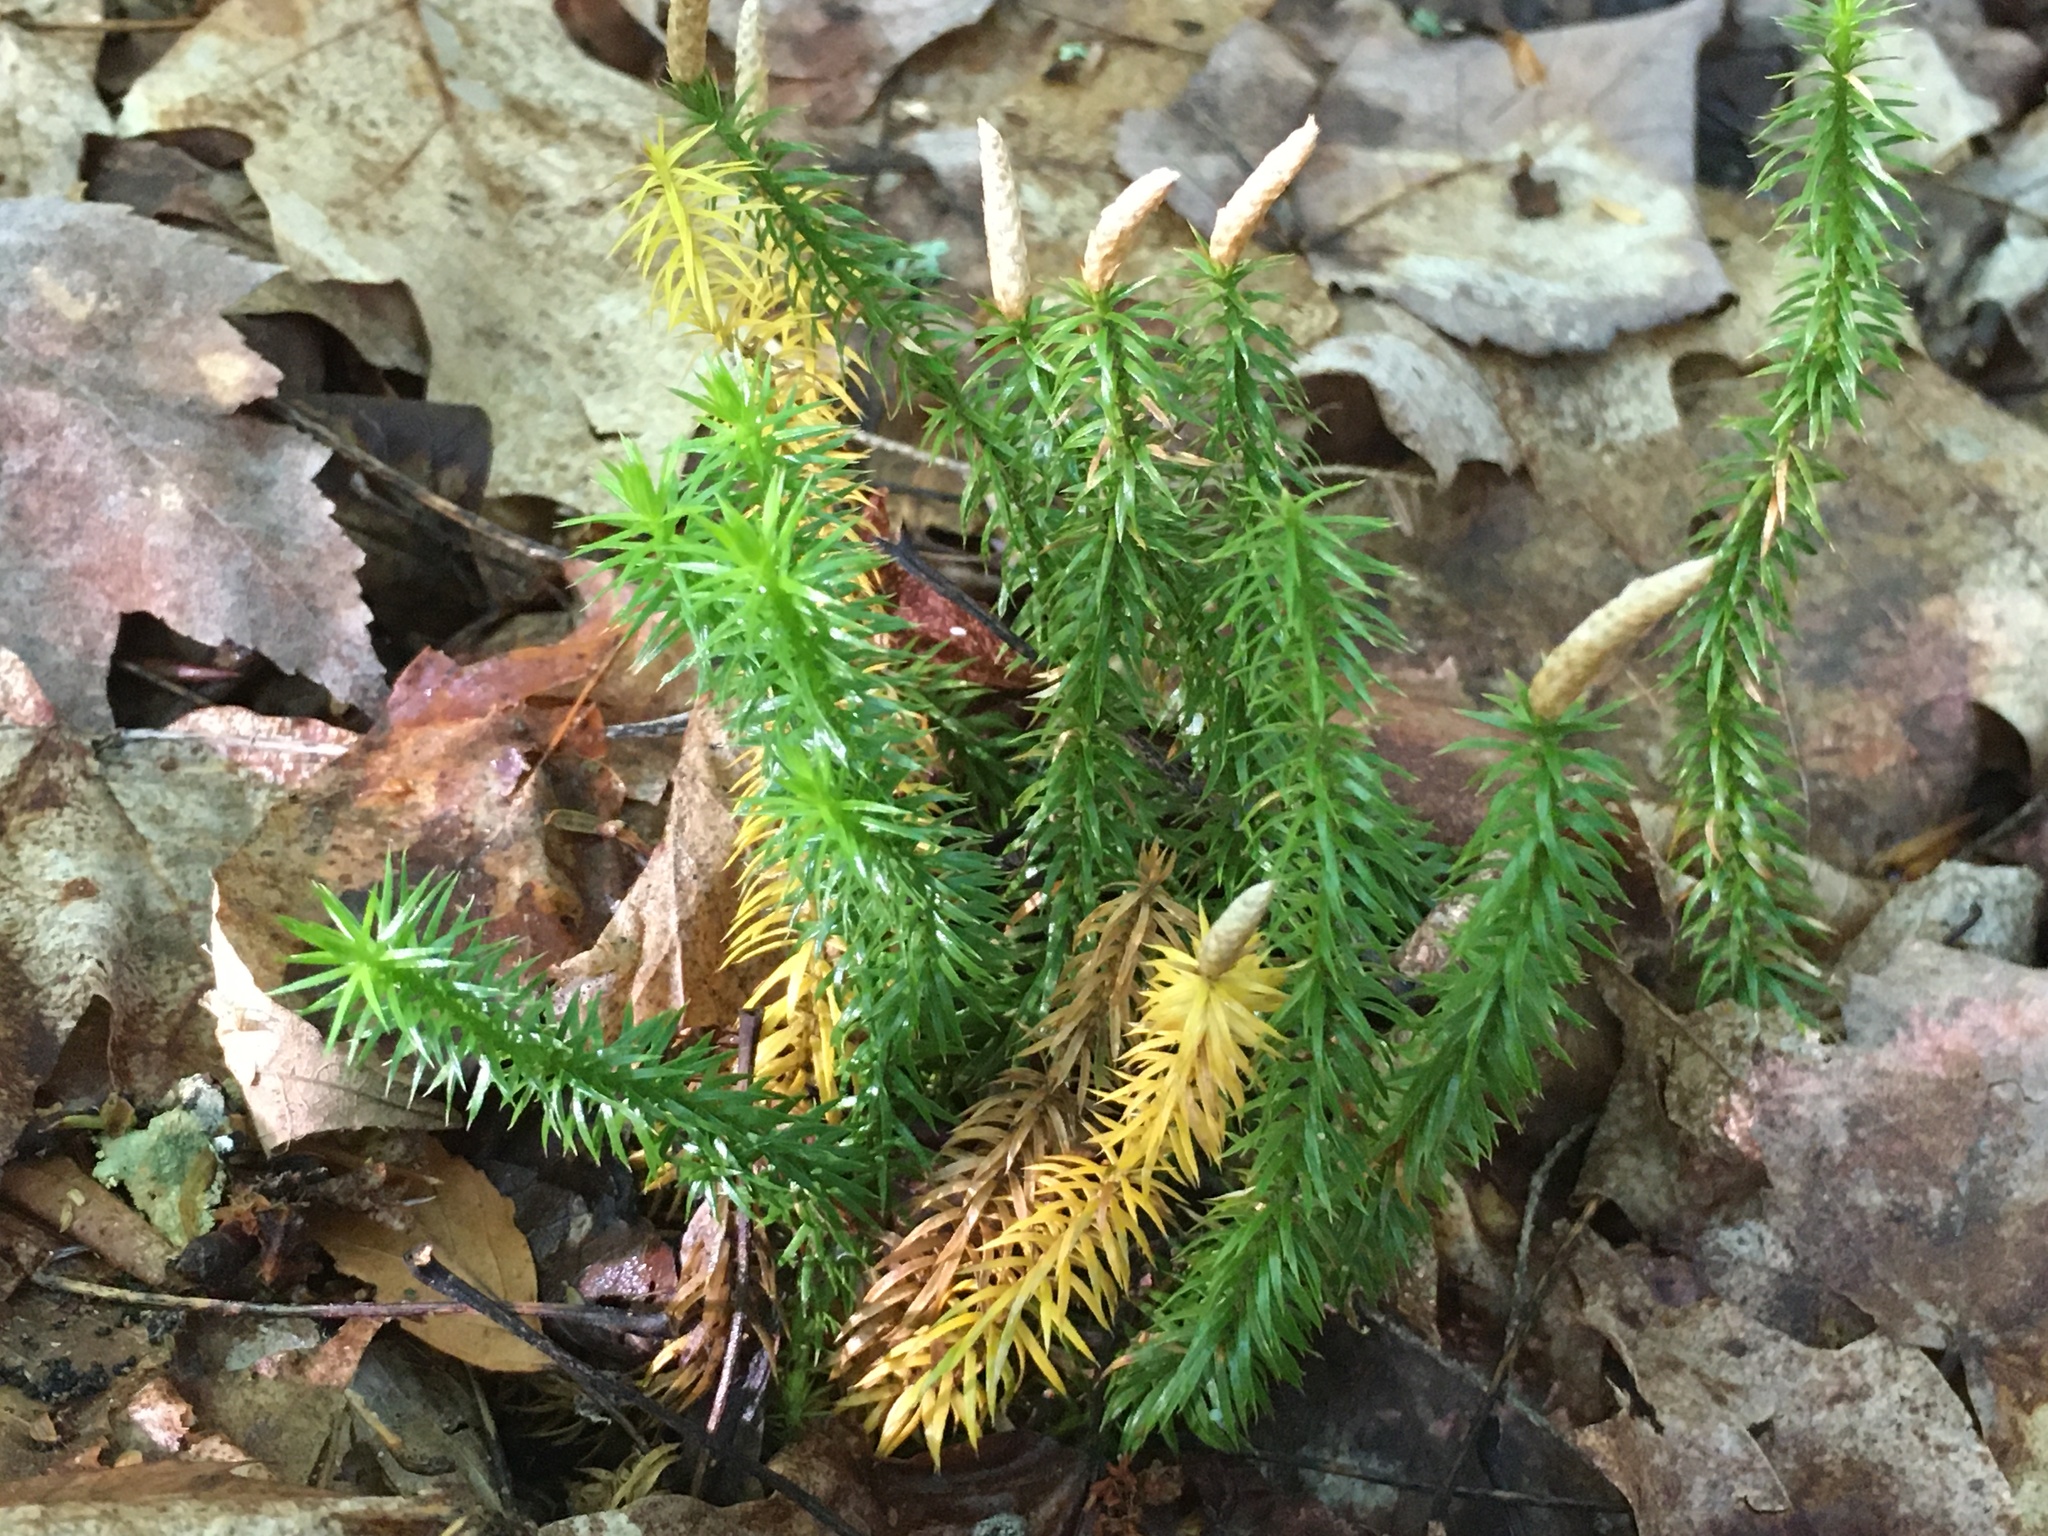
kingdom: Plantae
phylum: Tracheophyta
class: Lycopodiopsida
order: Lycopodiales
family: Lycopodiaceae
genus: Spinulum
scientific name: Spinulum annotinum
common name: Interrupted club-moss
